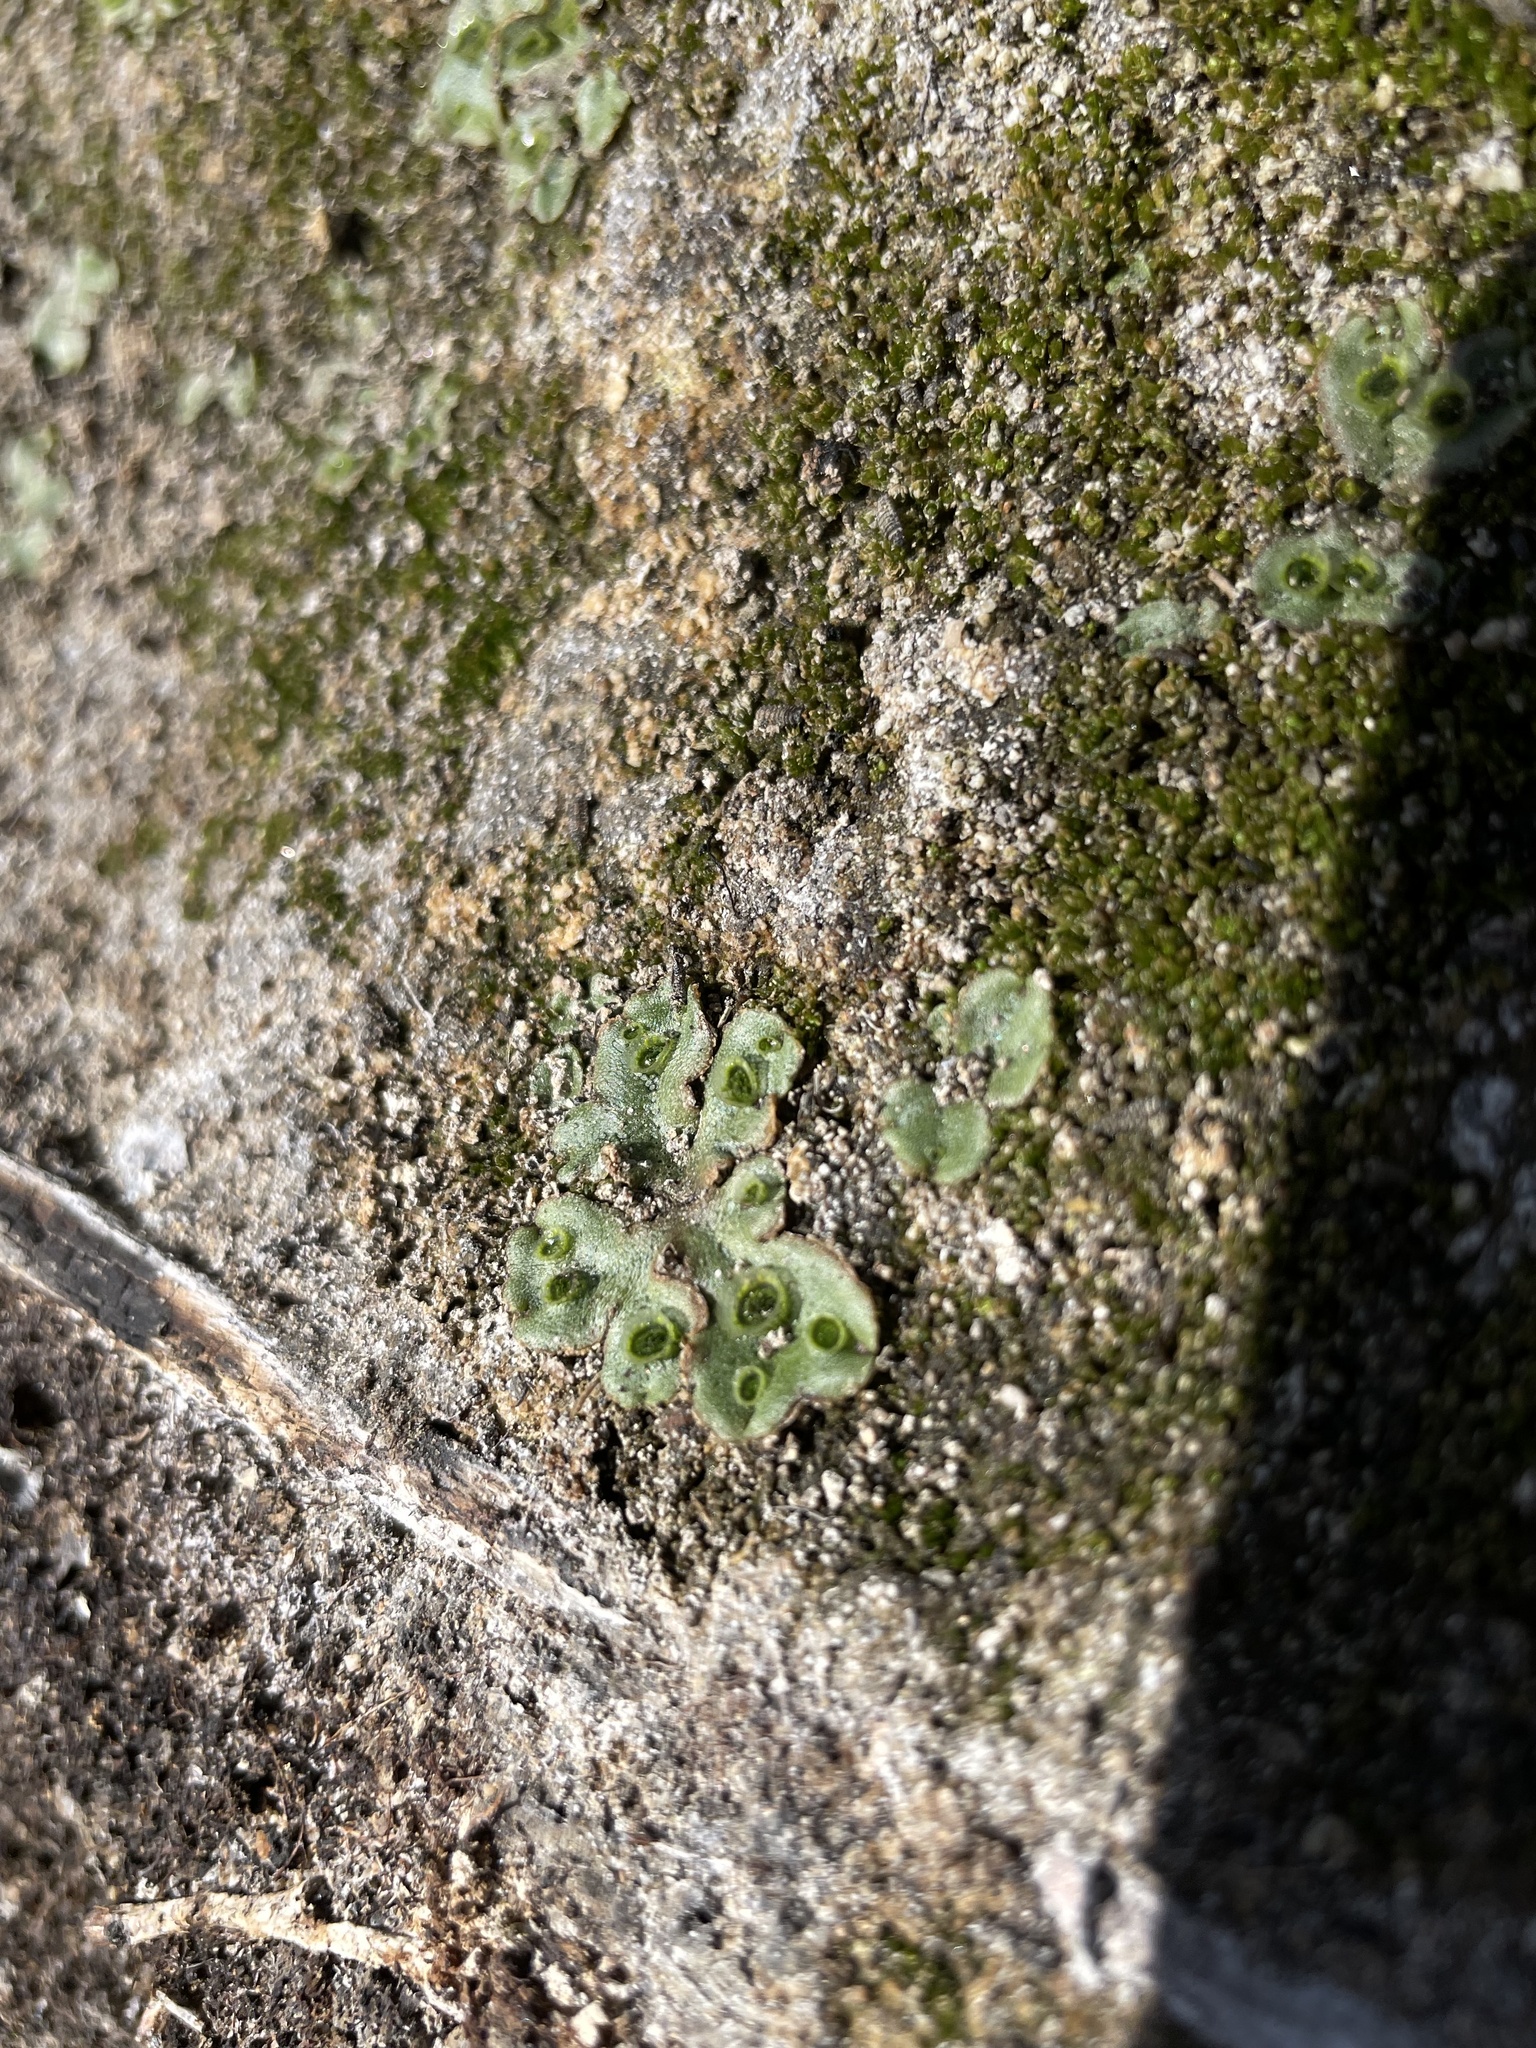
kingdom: Plantae
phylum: Marchantiophyta
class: Marchantiopsida
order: Marchantiales
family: Marchantiaceae
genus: Marchantia
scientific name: Marchantia polymorpha
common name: Common liverwort
